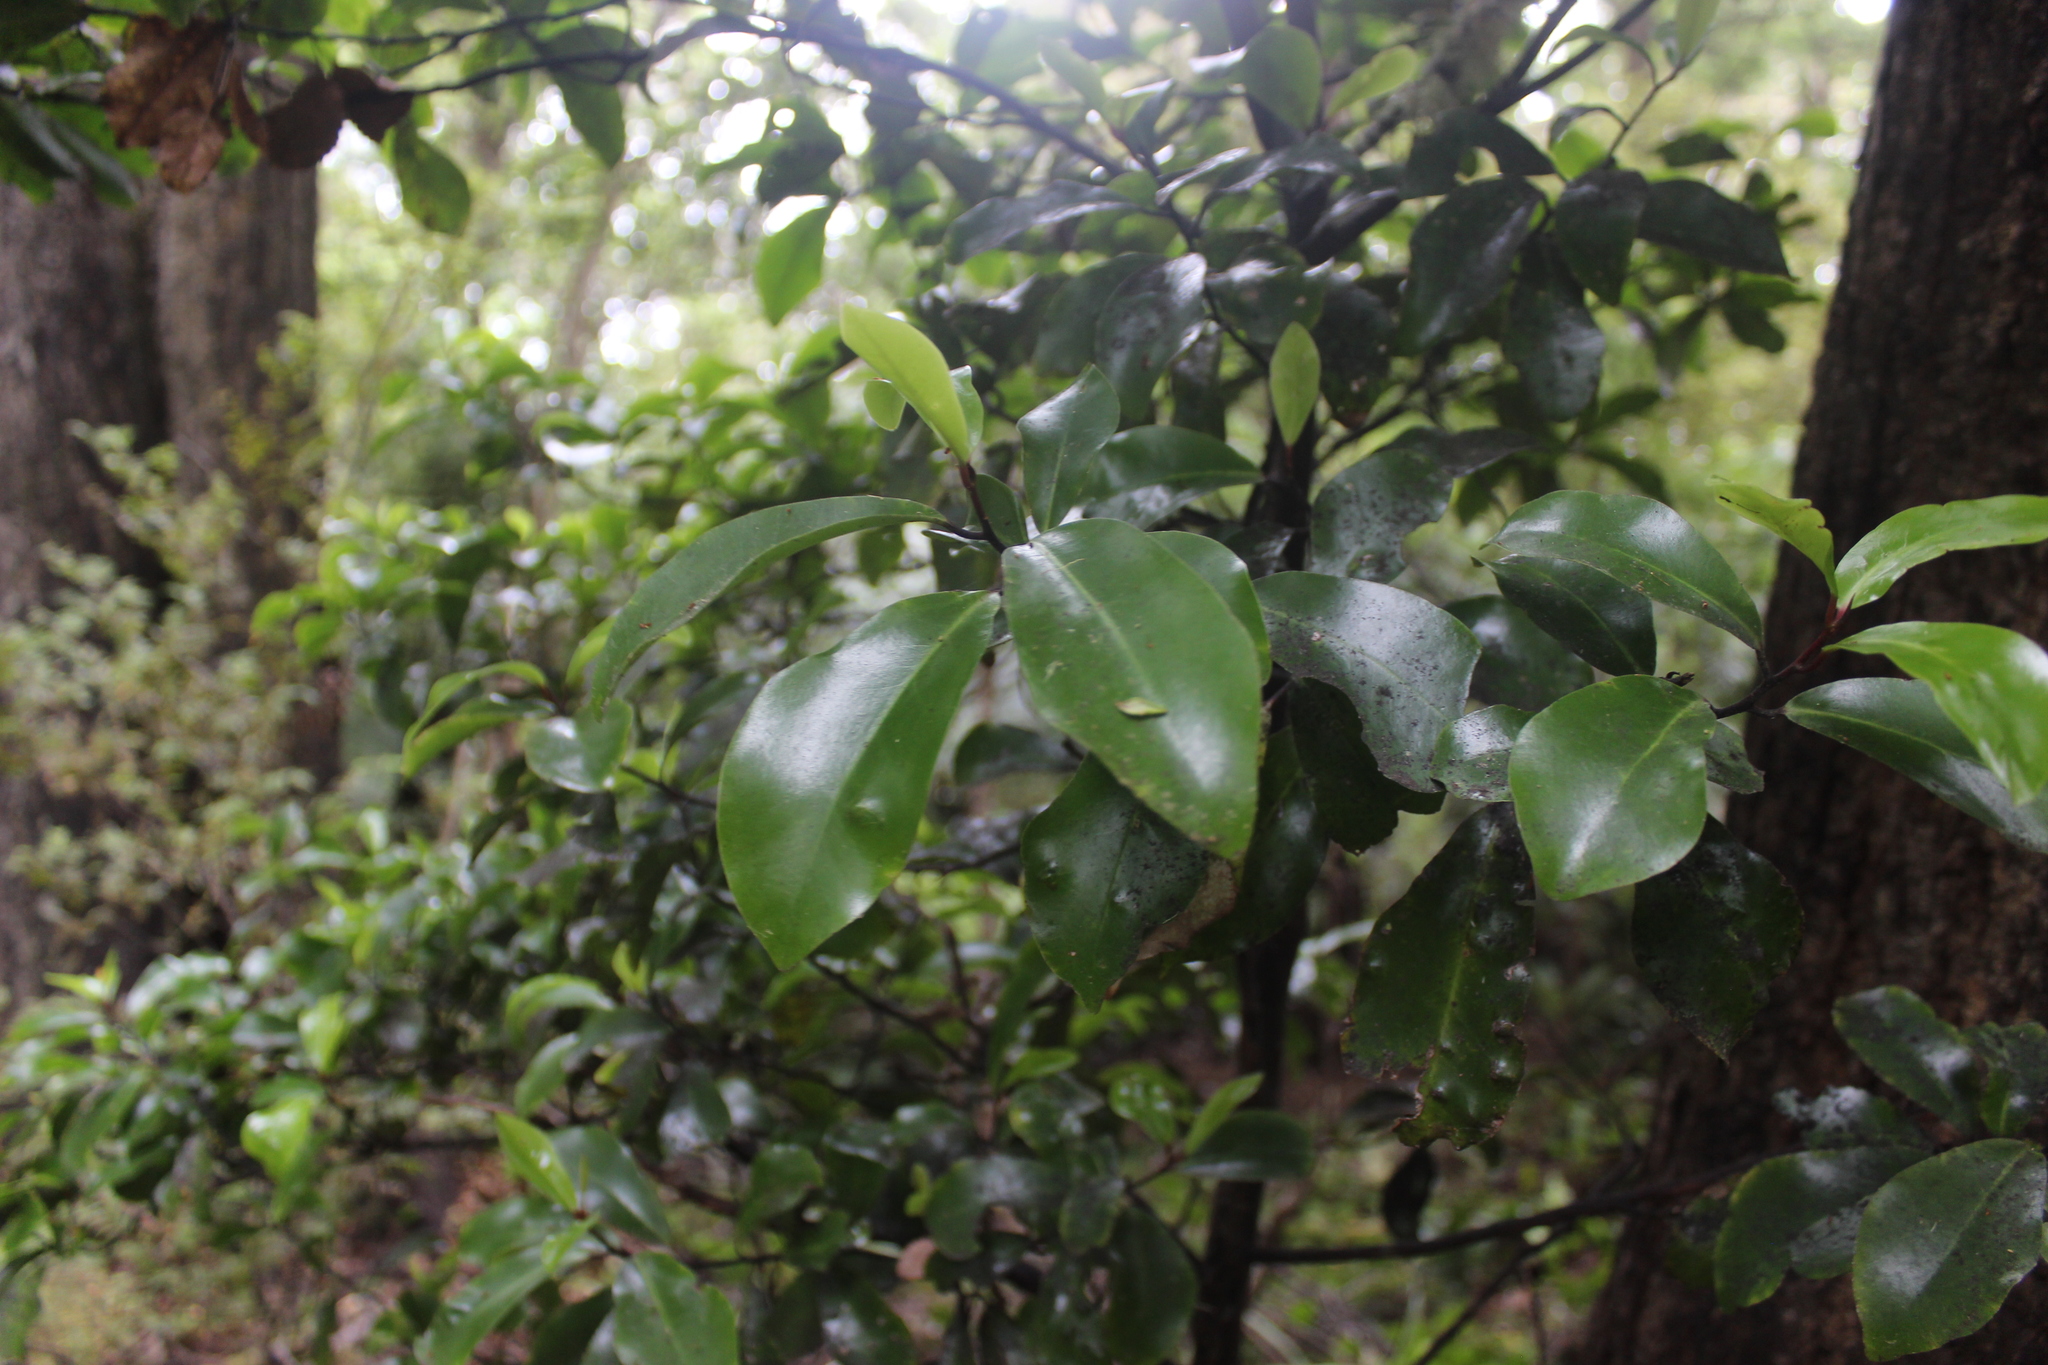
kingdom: Plantae
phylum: Tracheophyta
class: Magnoliopsida
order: Canellales
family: Winteraceae
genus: Pseudowintera
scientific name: Pseudowintera axillaris
